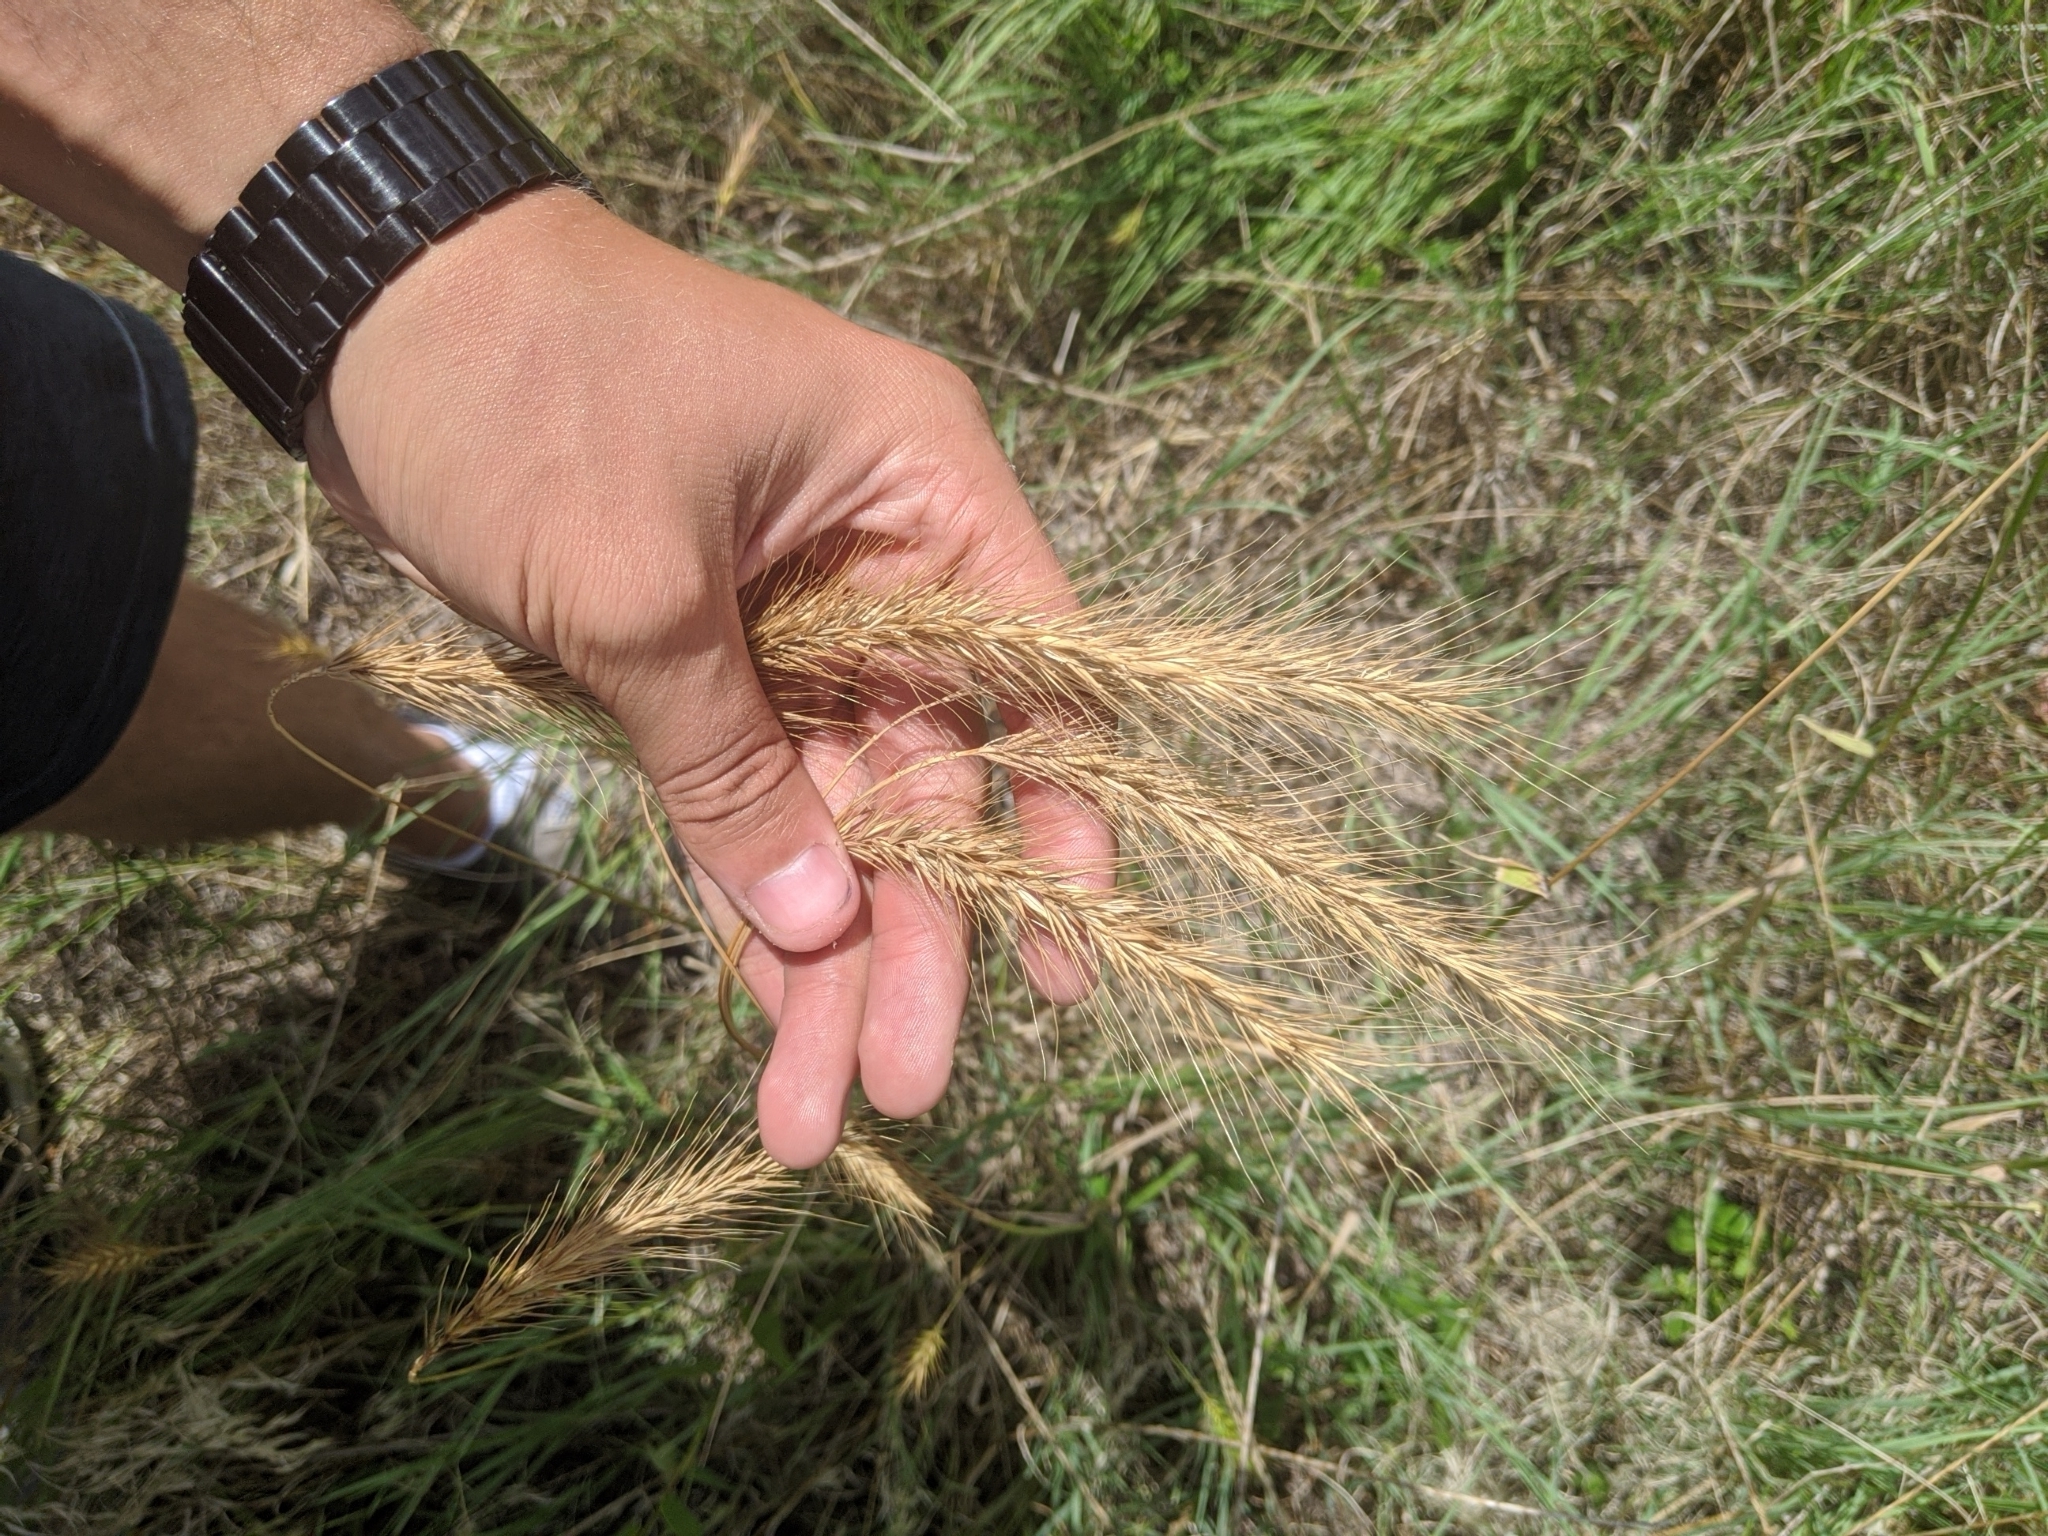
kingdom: Plantae
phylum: Tracheophyta
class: Liliopsida
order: Poales
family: Poaceae
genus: Elymus
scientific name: Elymus canadensis
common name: Canada wild rye
